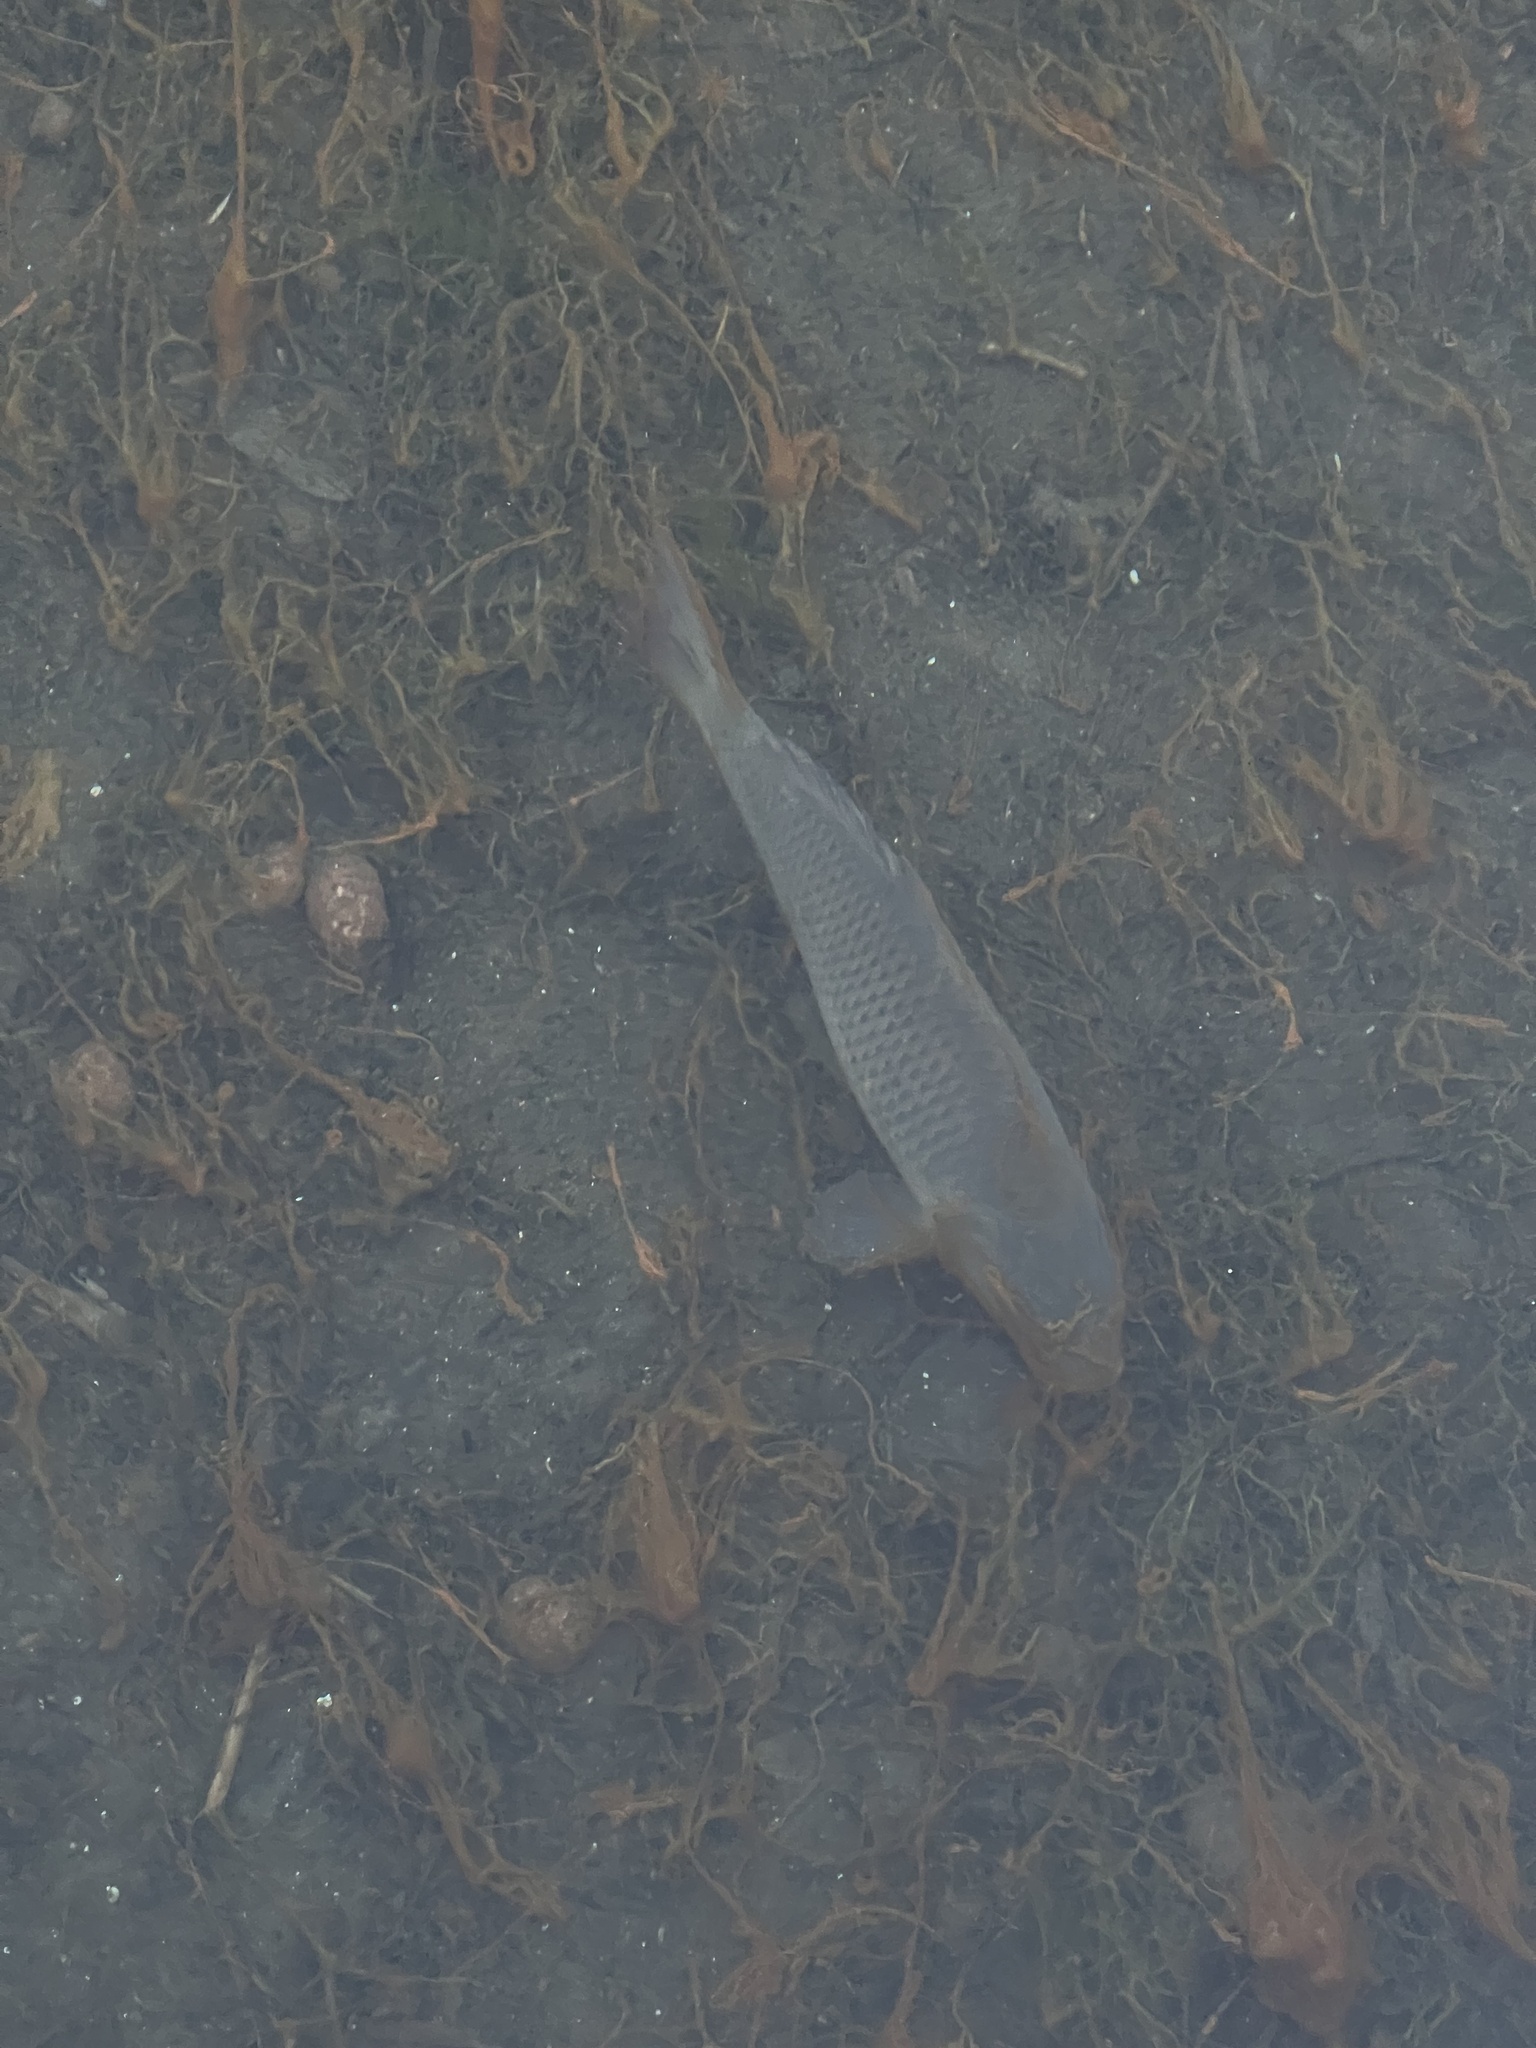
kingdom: Animalia
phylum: Chordata
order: Cypriniformes
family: Cyprinidae
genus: Cyprinus
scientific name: Cyprinus carpio
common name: Common carp
